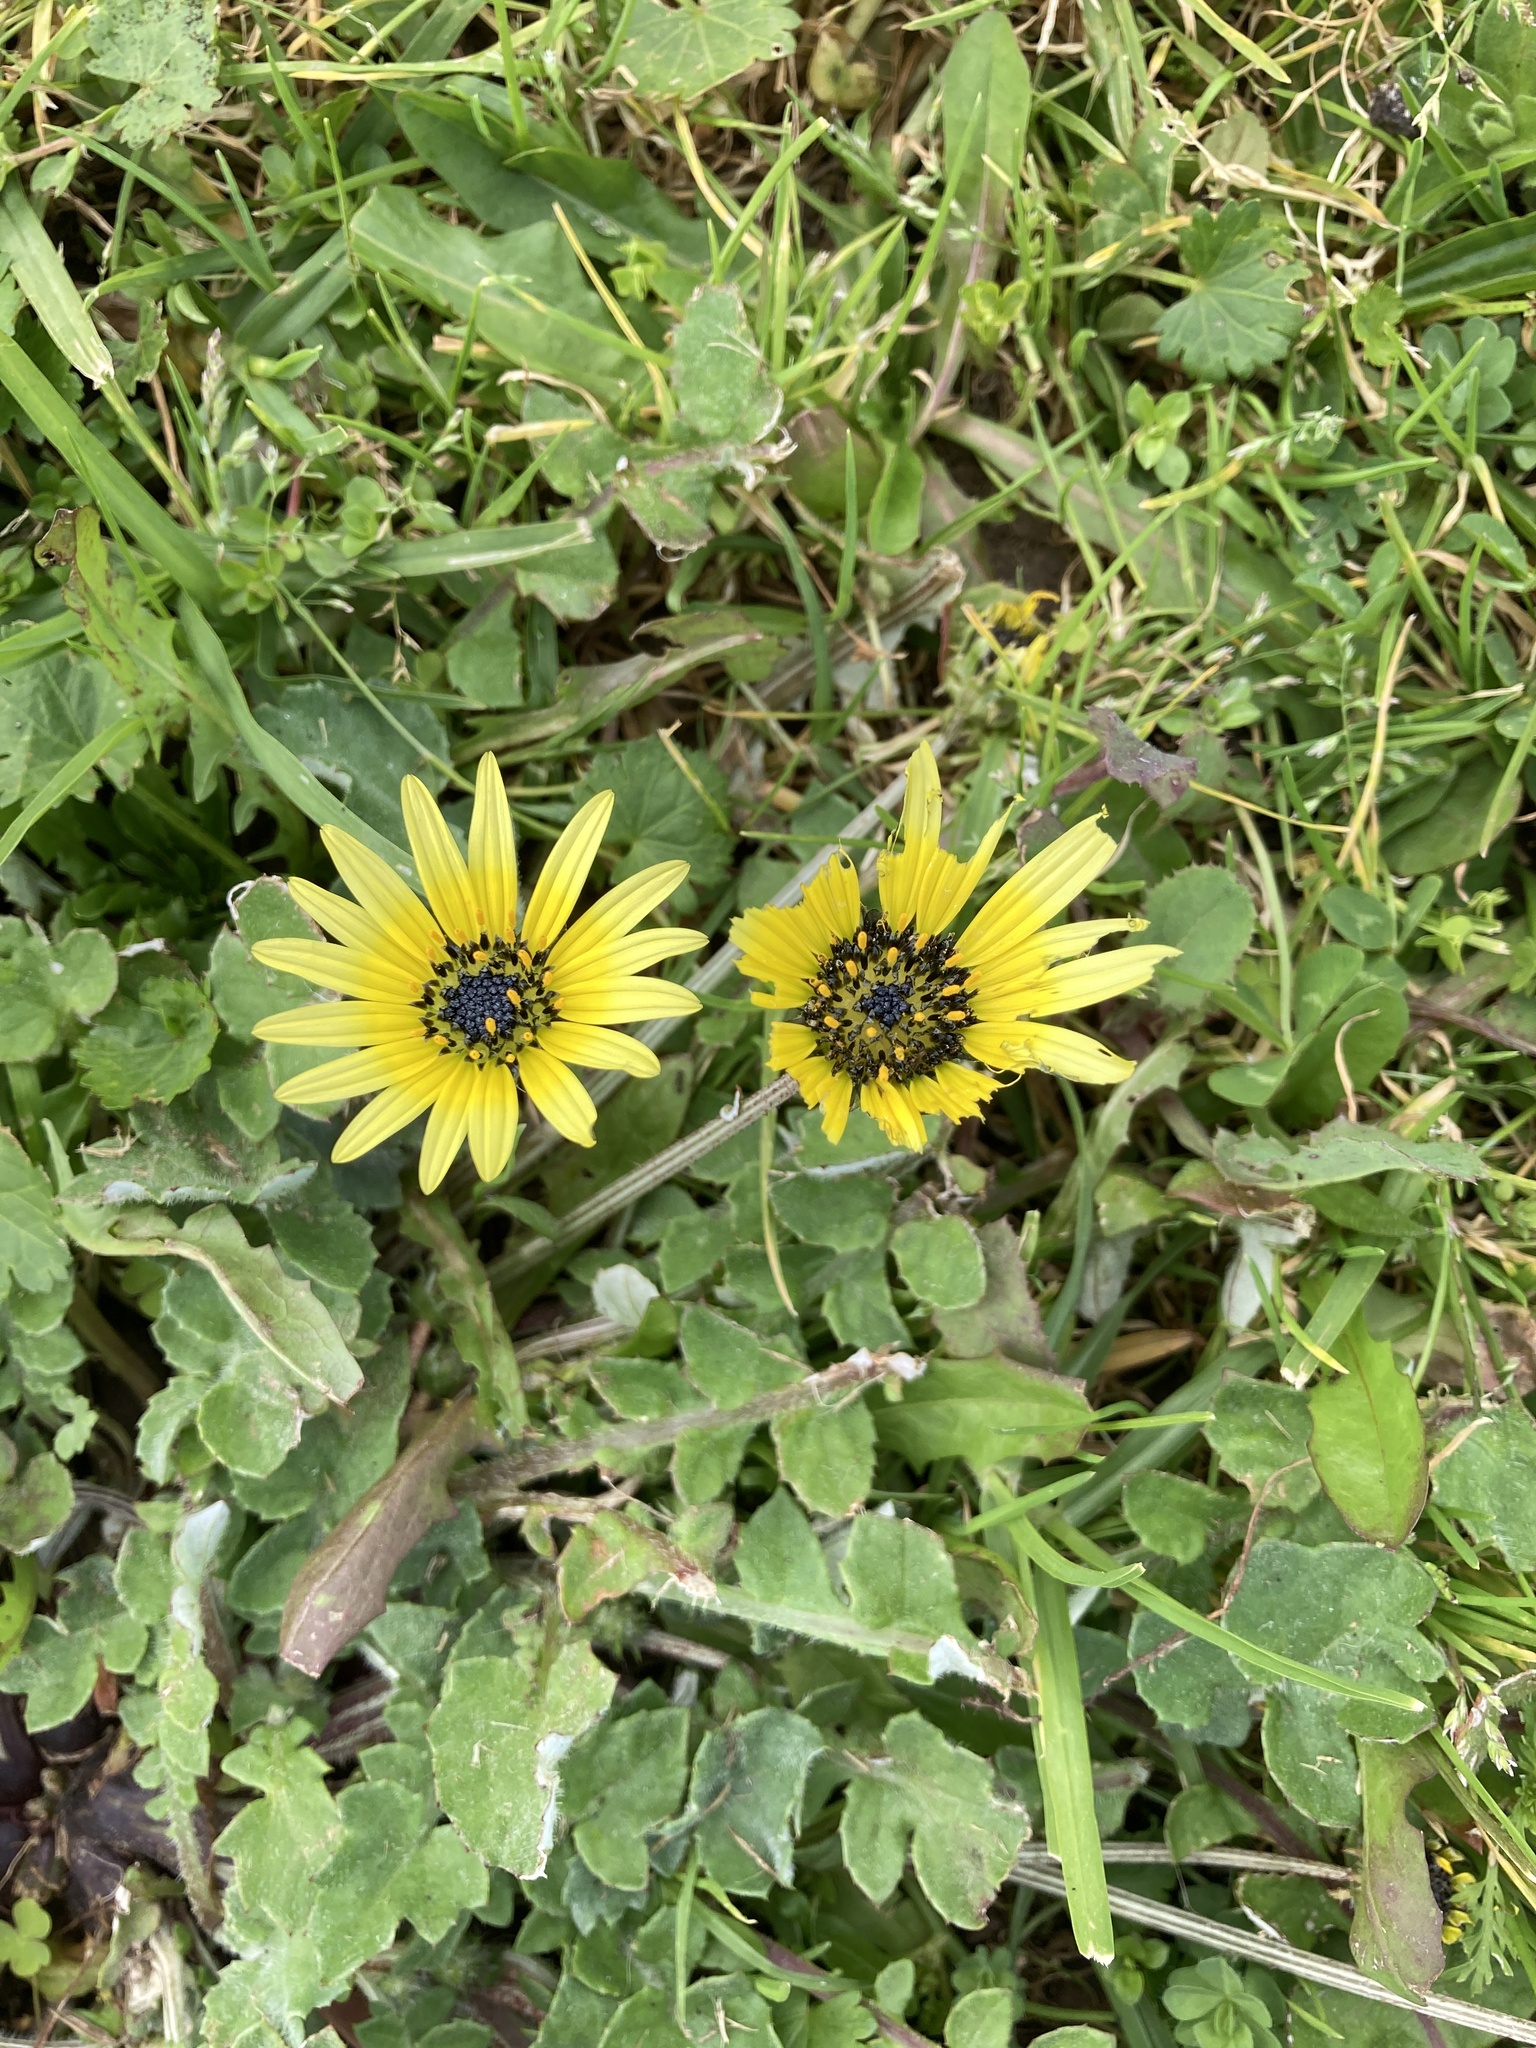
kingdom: Plantae
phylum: Tracheophyta
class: Magnoliopsida
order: Asterales
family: Asteraceae
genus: Arctotheca
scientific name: Arctotheca calendula
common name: Capeweed
